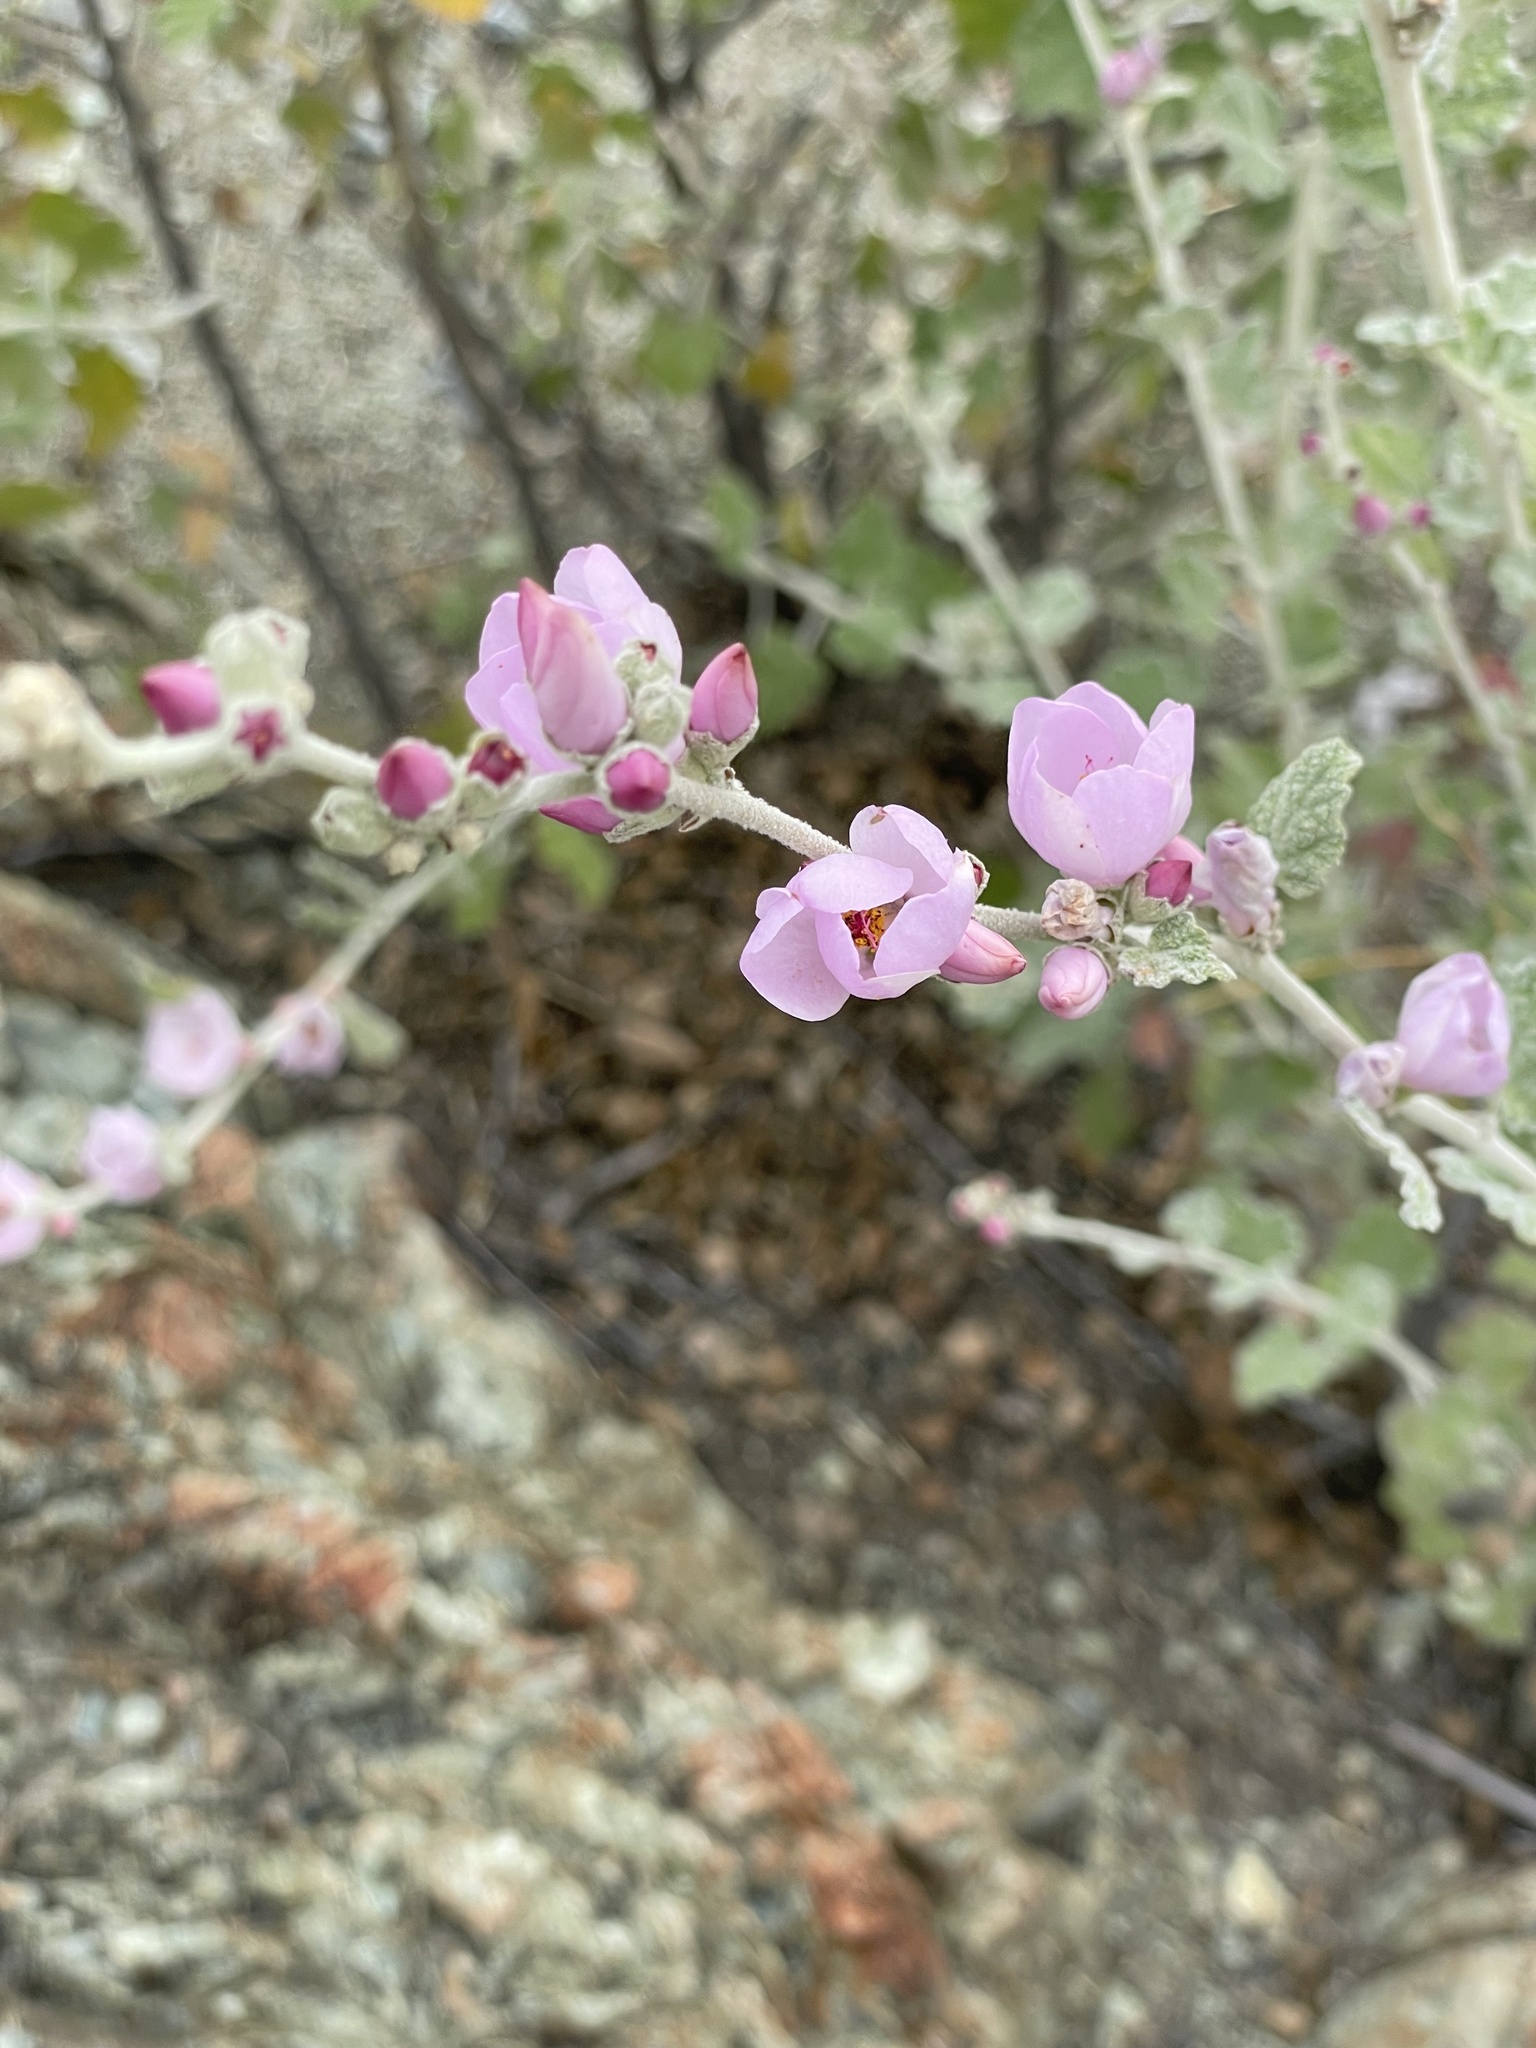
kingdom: Plantae
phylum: Tracheophyta
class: Magnoliopsida
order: Malvales
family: Malvaceae
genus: Malacothamnus
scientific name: Malacothamnus fasciculatus
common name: Sant cruz island bush-mallow
